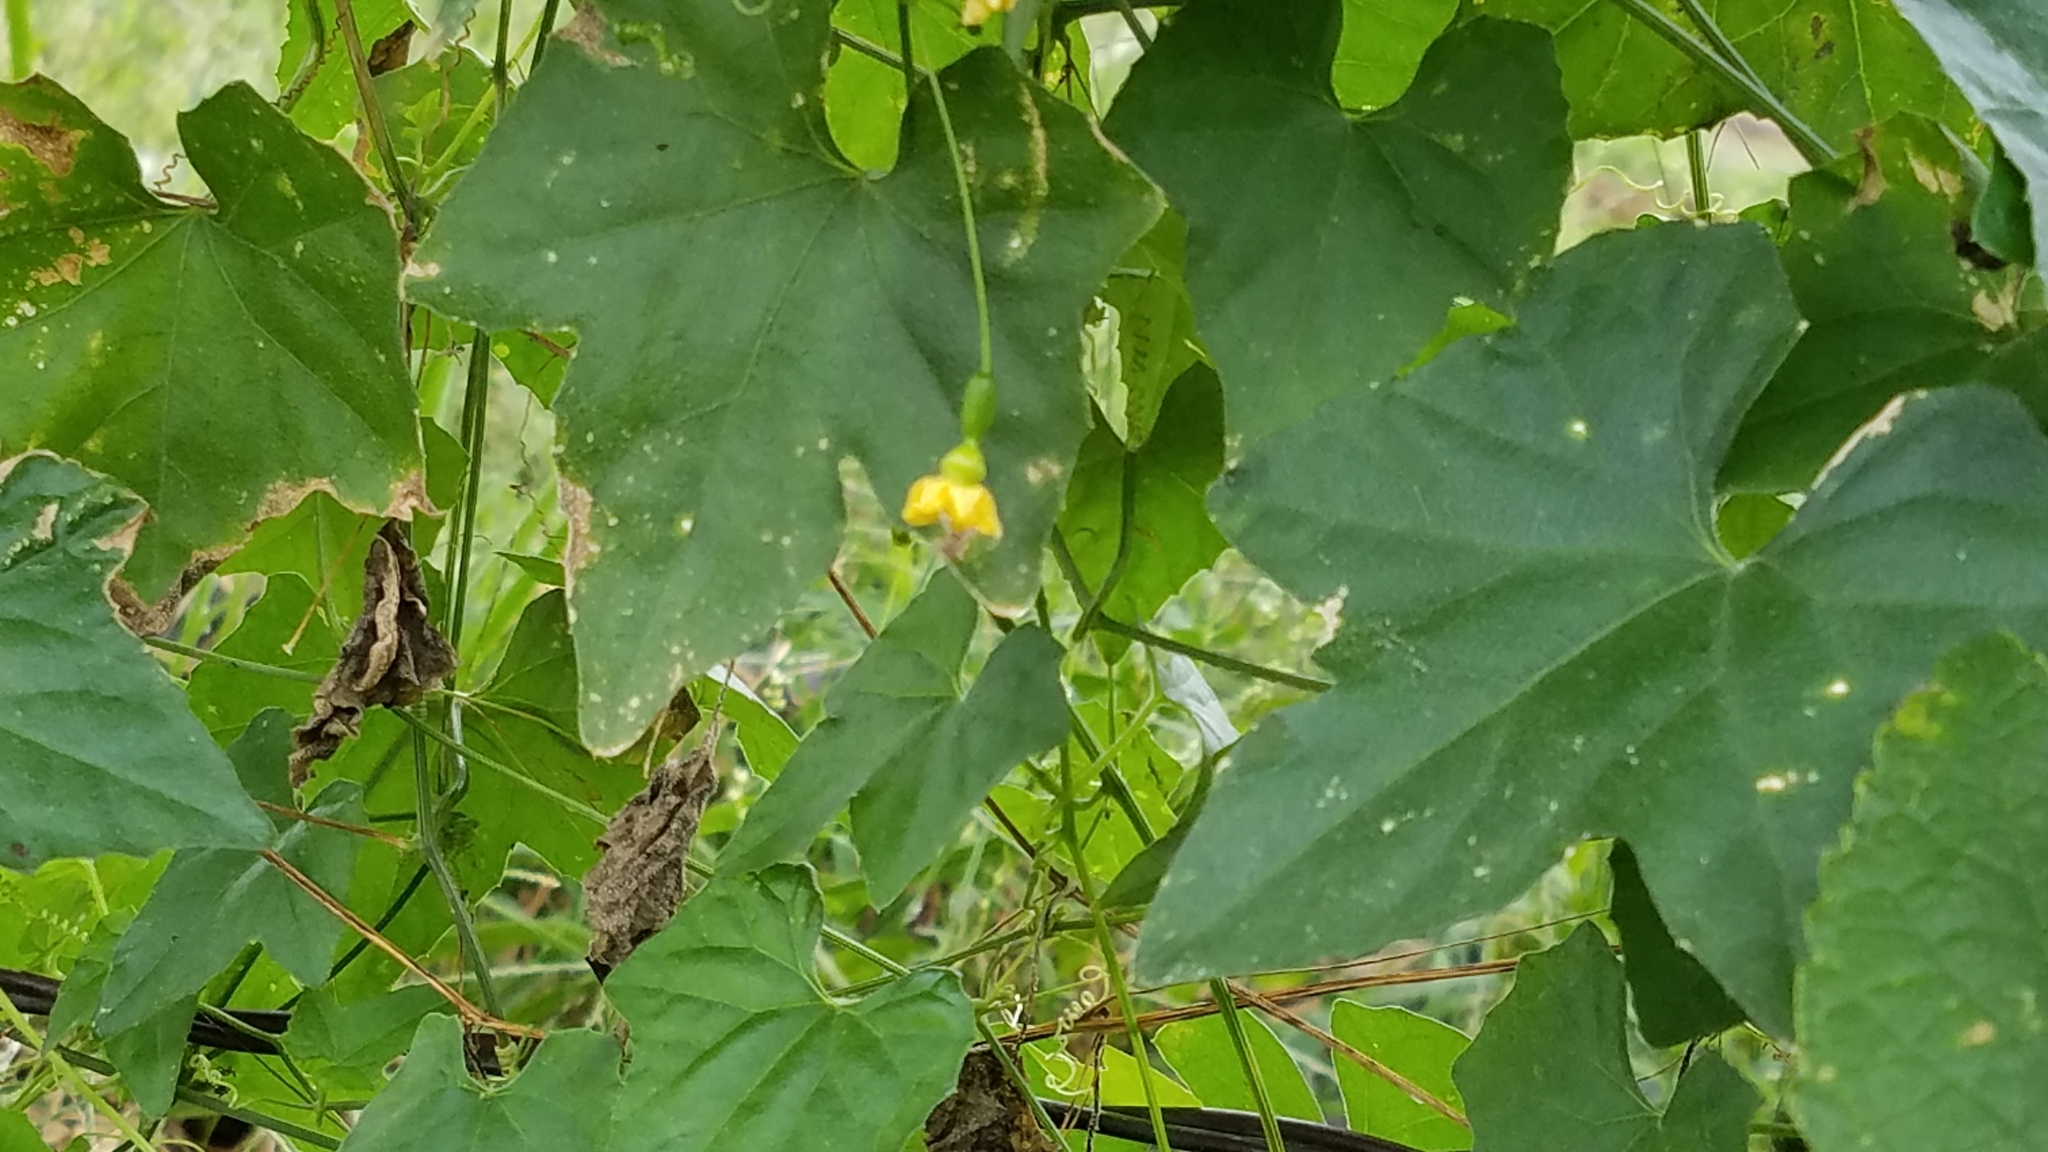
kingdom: Plantae
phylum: Tracheophyta
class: Magnoliopsida
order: Cucurbitales
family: Cucurbitaceae
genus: Melothria
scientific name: Melothria pendula
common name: Creeping-cucumber
